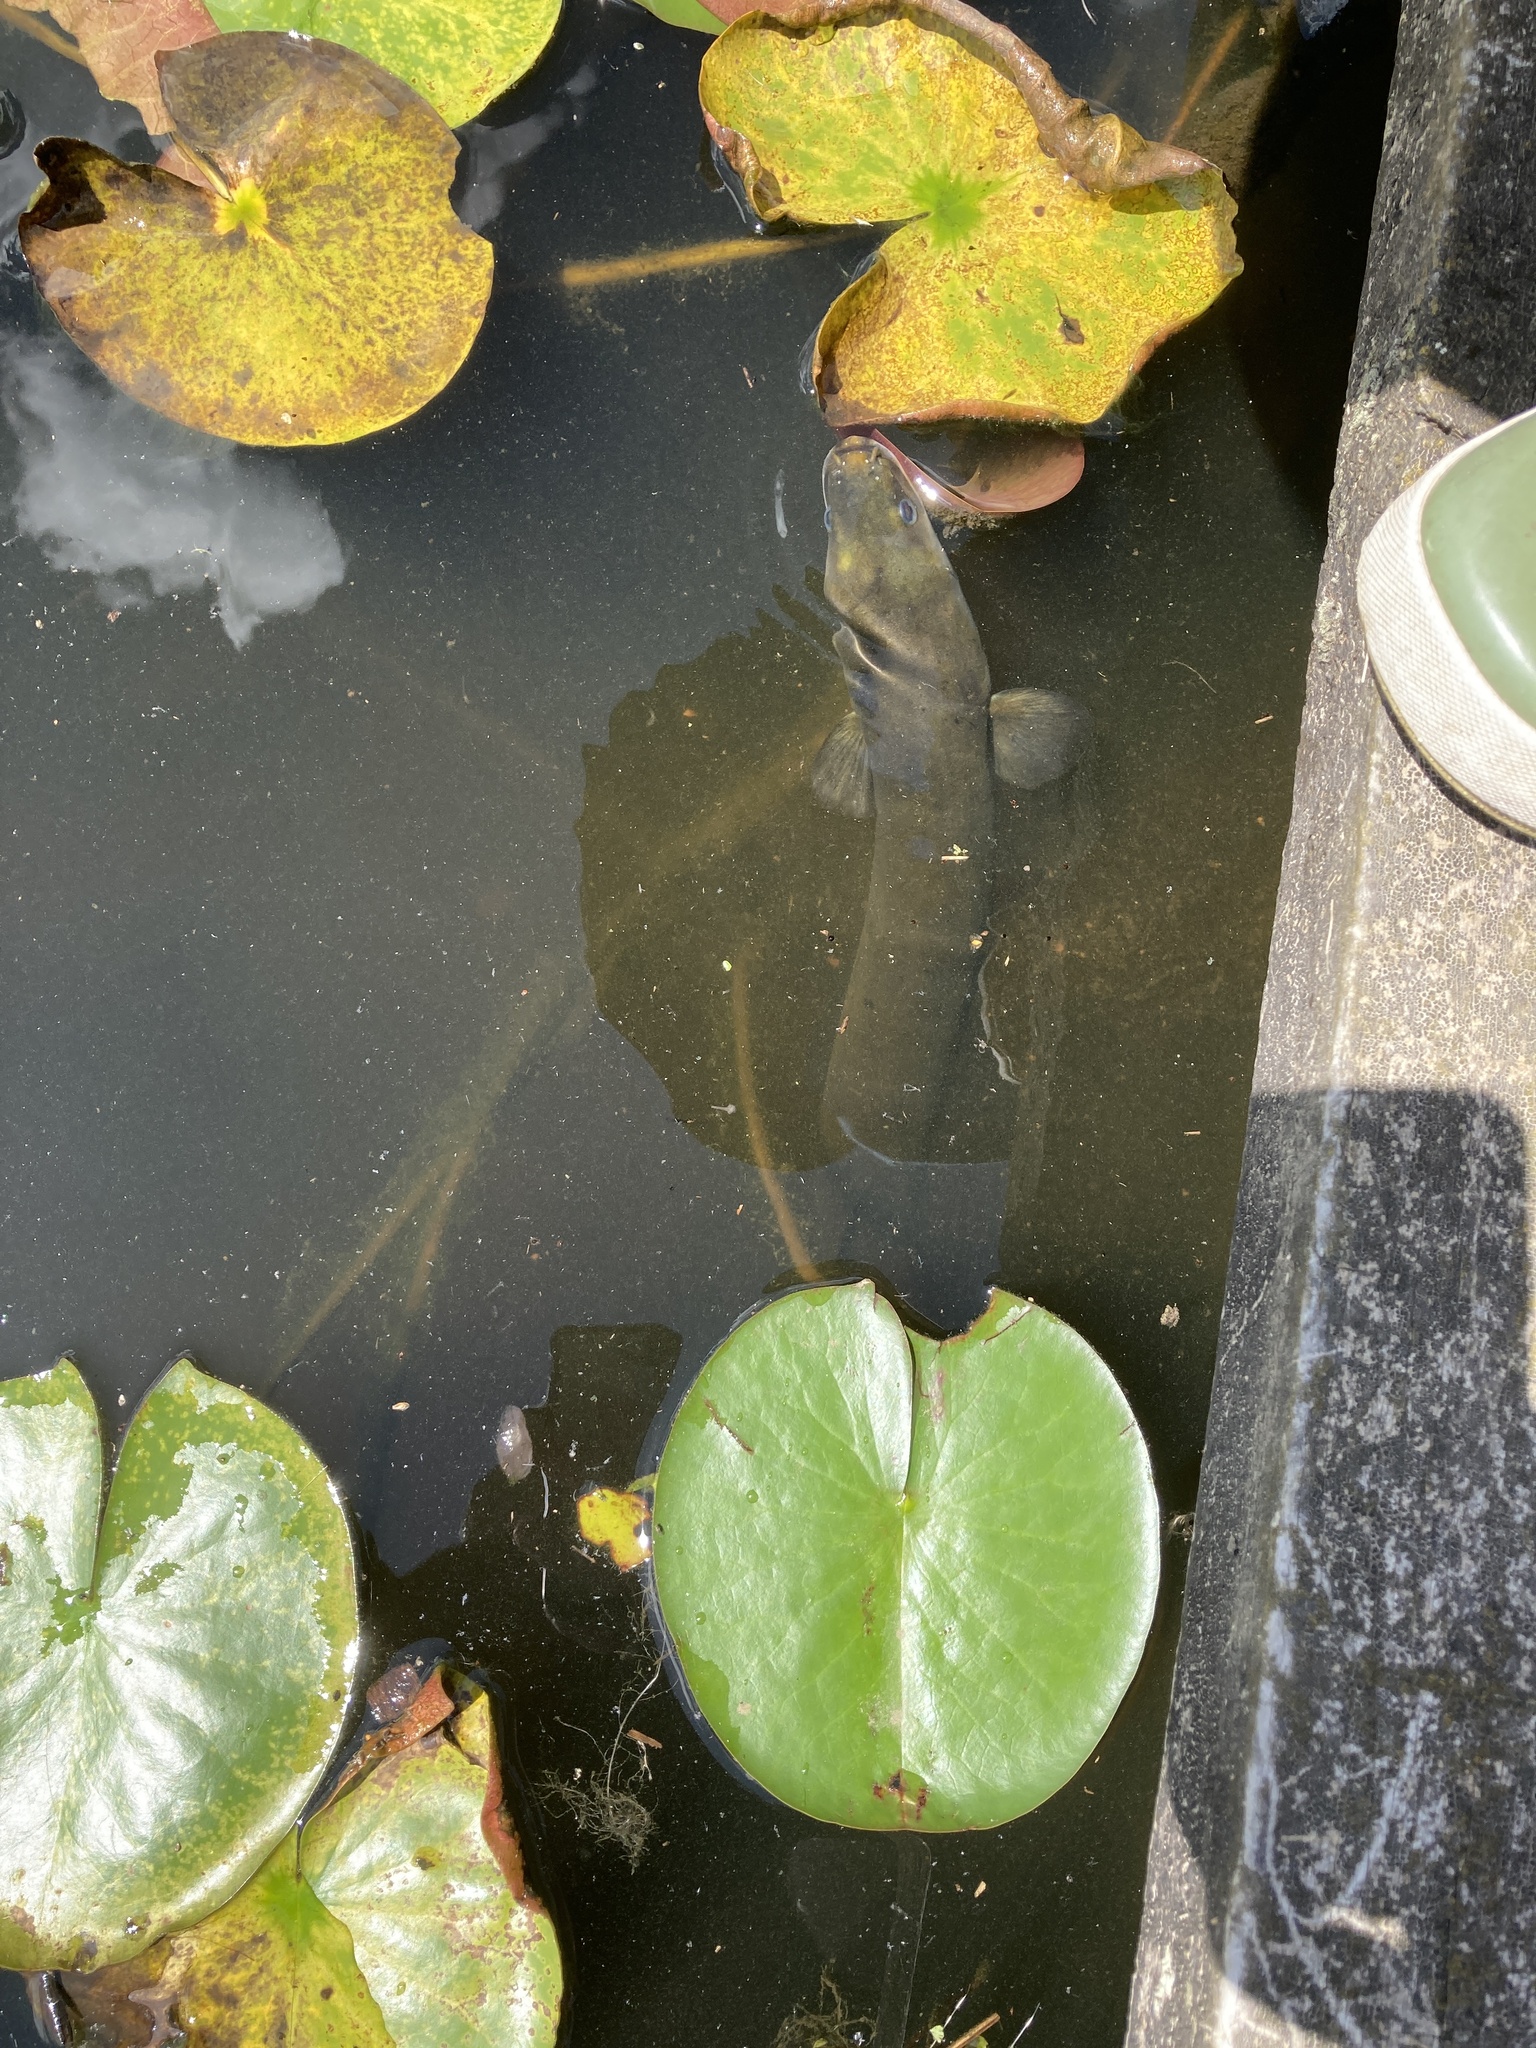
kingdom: Animalia
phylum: Chordata
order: Anguilliformes
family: Anguillidae
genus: Anguilla
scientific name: Anguilla australis
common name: Shortfin eel
